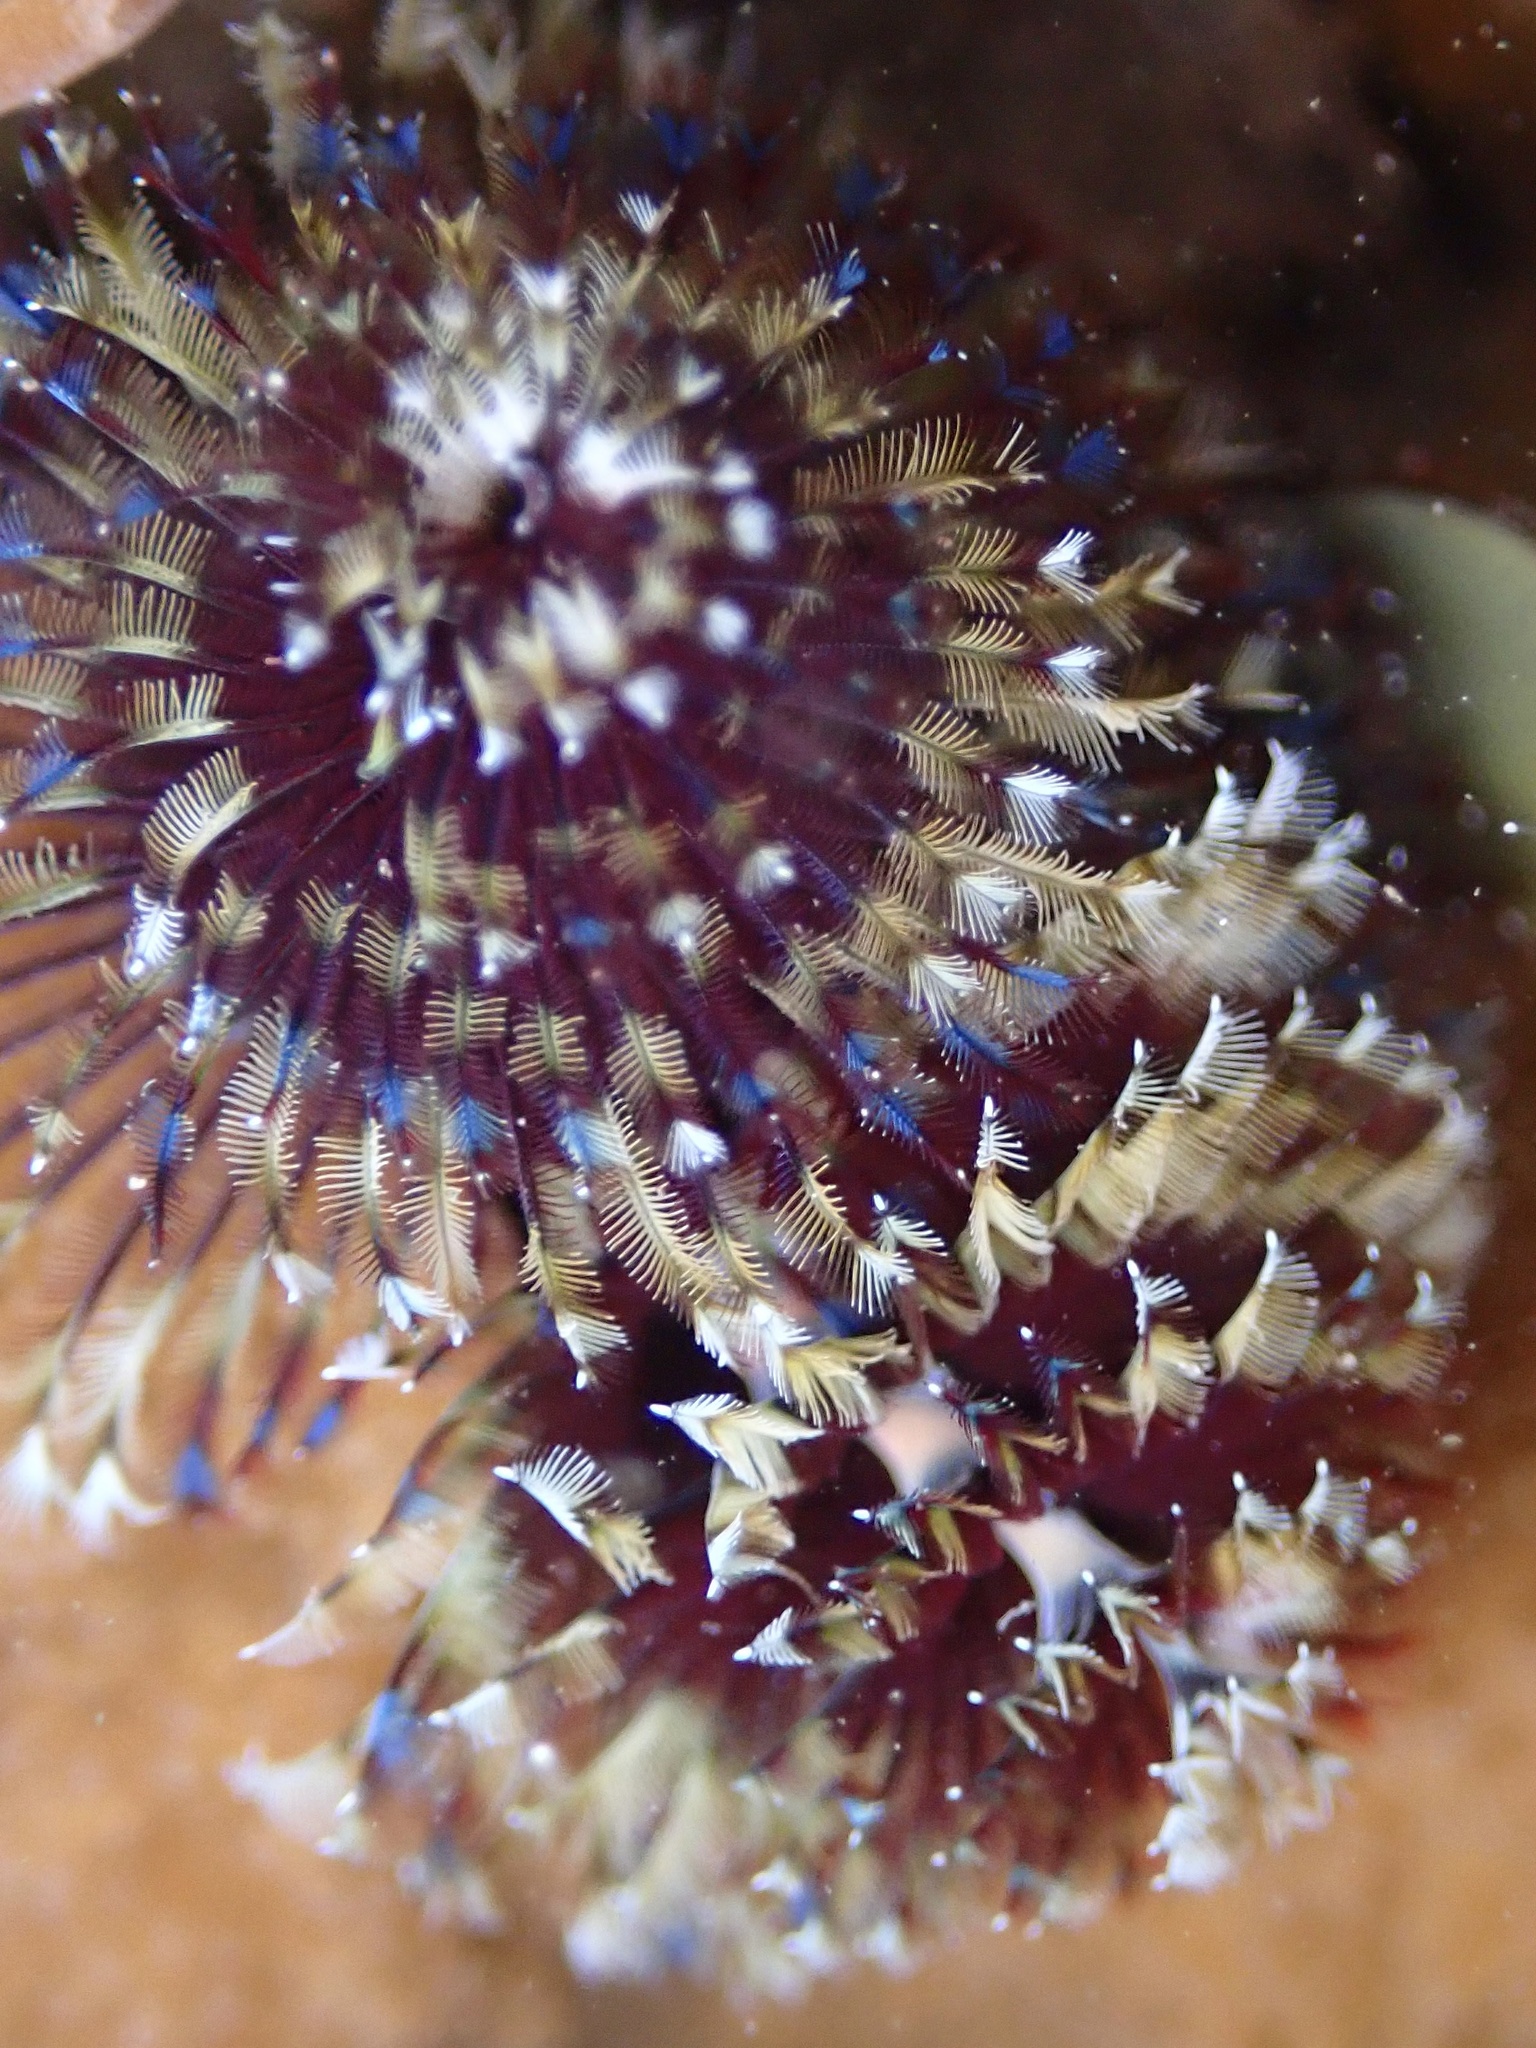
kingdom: Animalia
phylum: Annelida
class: Polychaeta
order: Sabellida
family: Serpulidae
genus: Spirobranchus
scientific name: Spirobranchus
